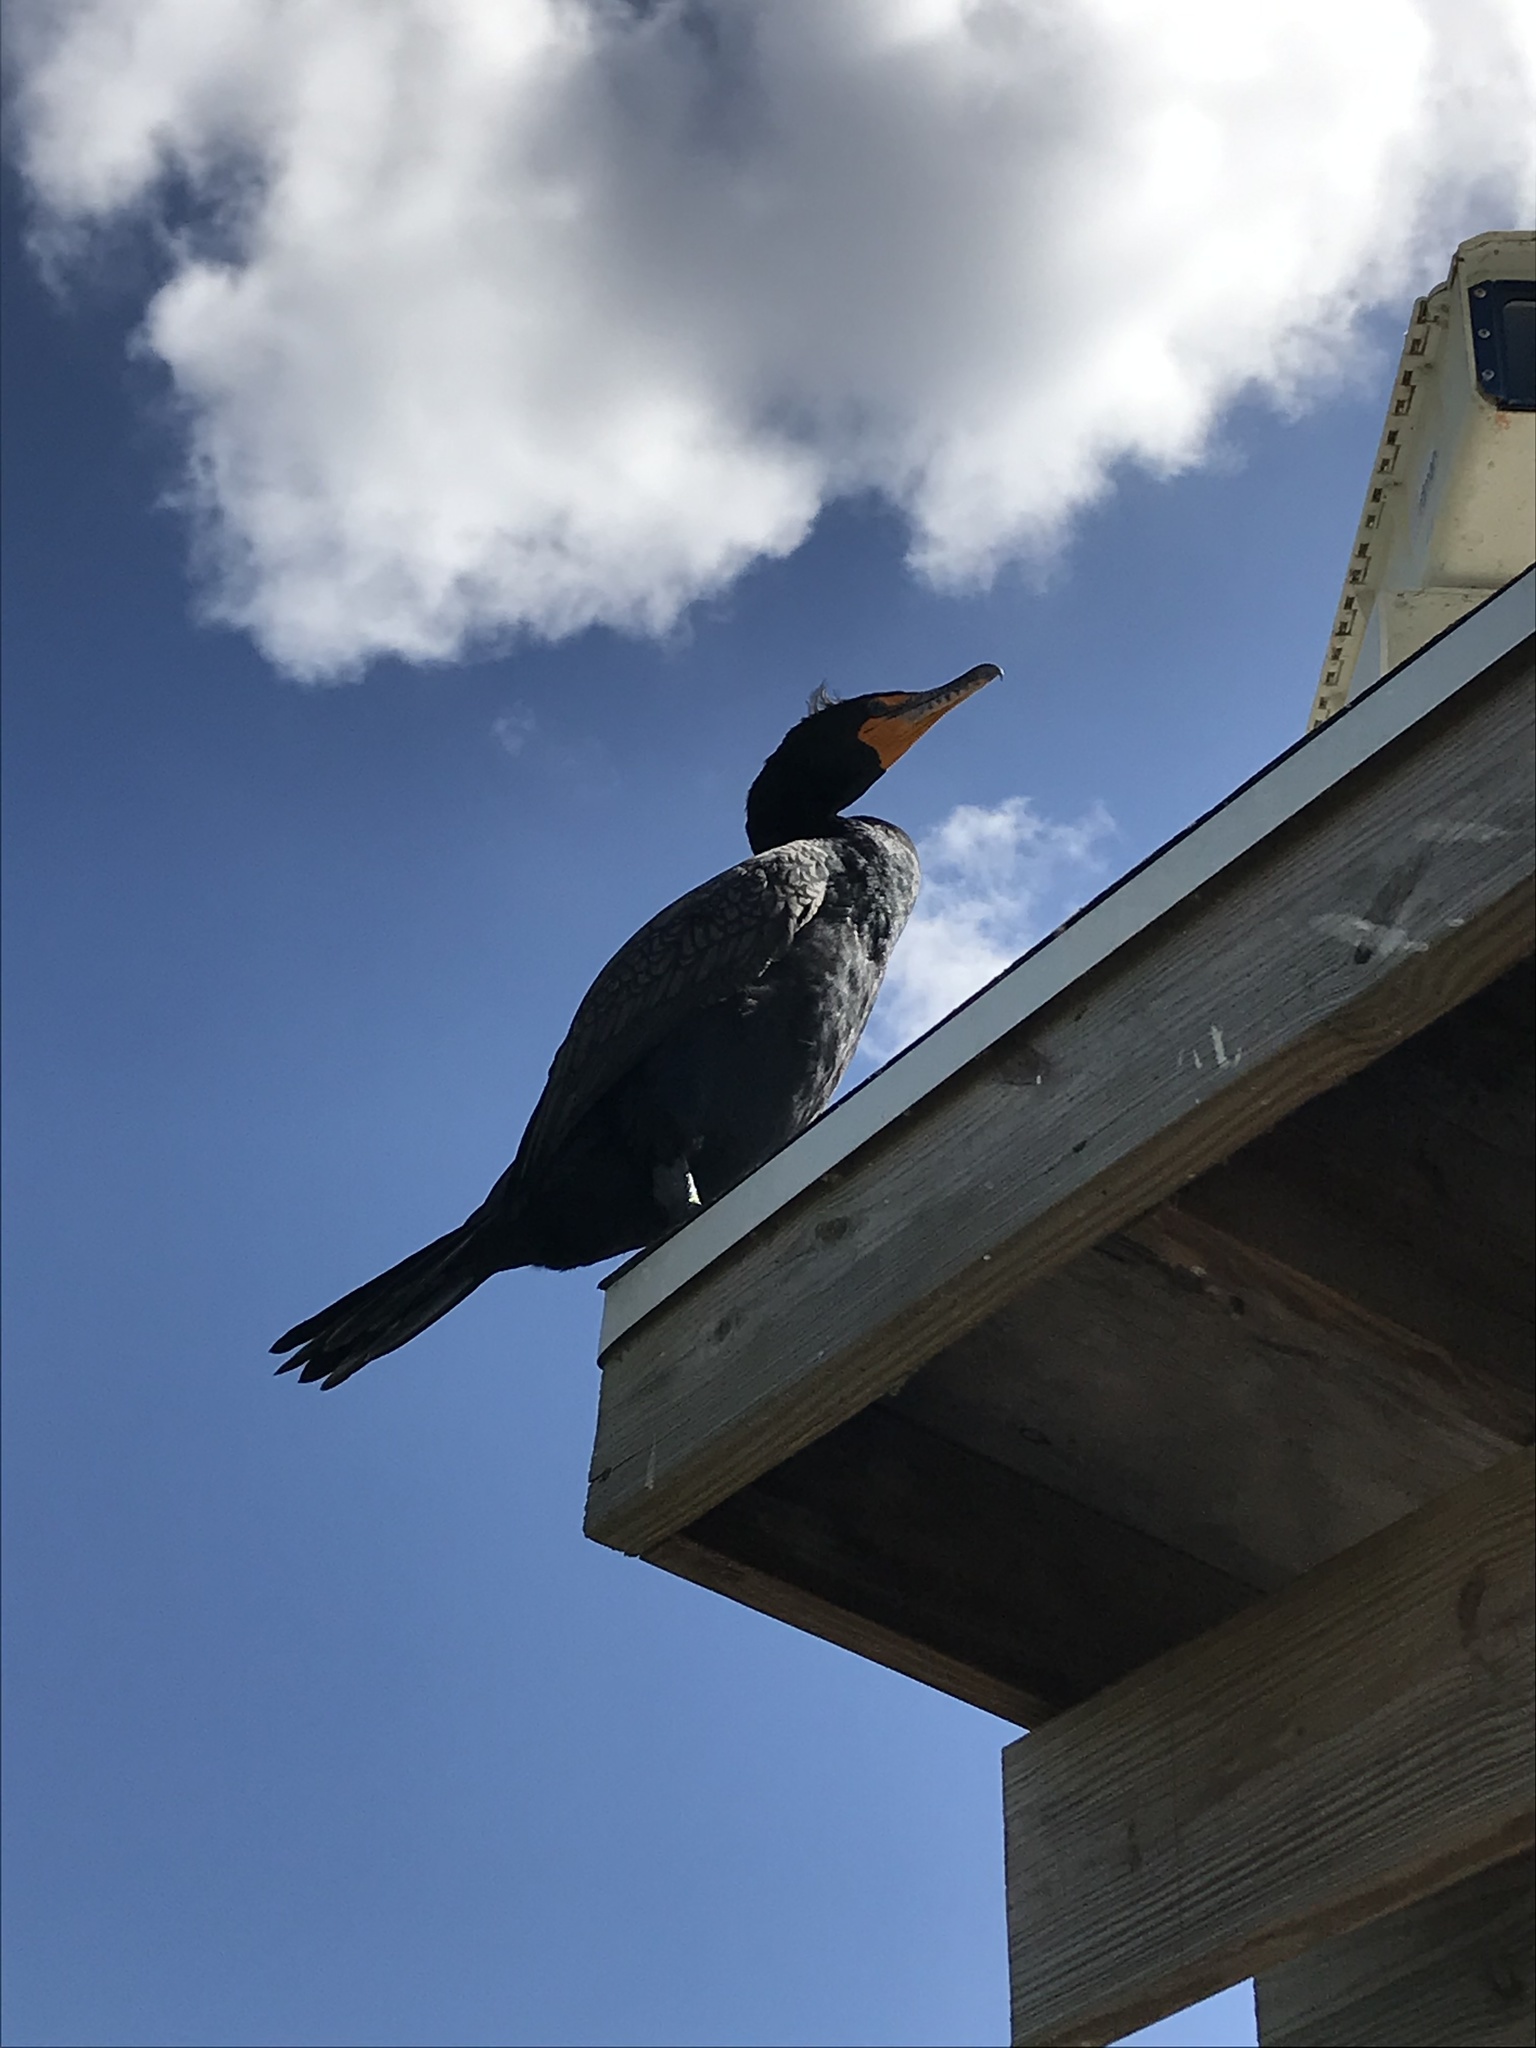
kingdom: Animalia
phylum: Chordata
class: Aves
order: Suliformes
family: Phalacrocoracidae
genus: Phalacrocorax
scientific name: Phalacrocorax auritus
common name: Double-crested cormorant
